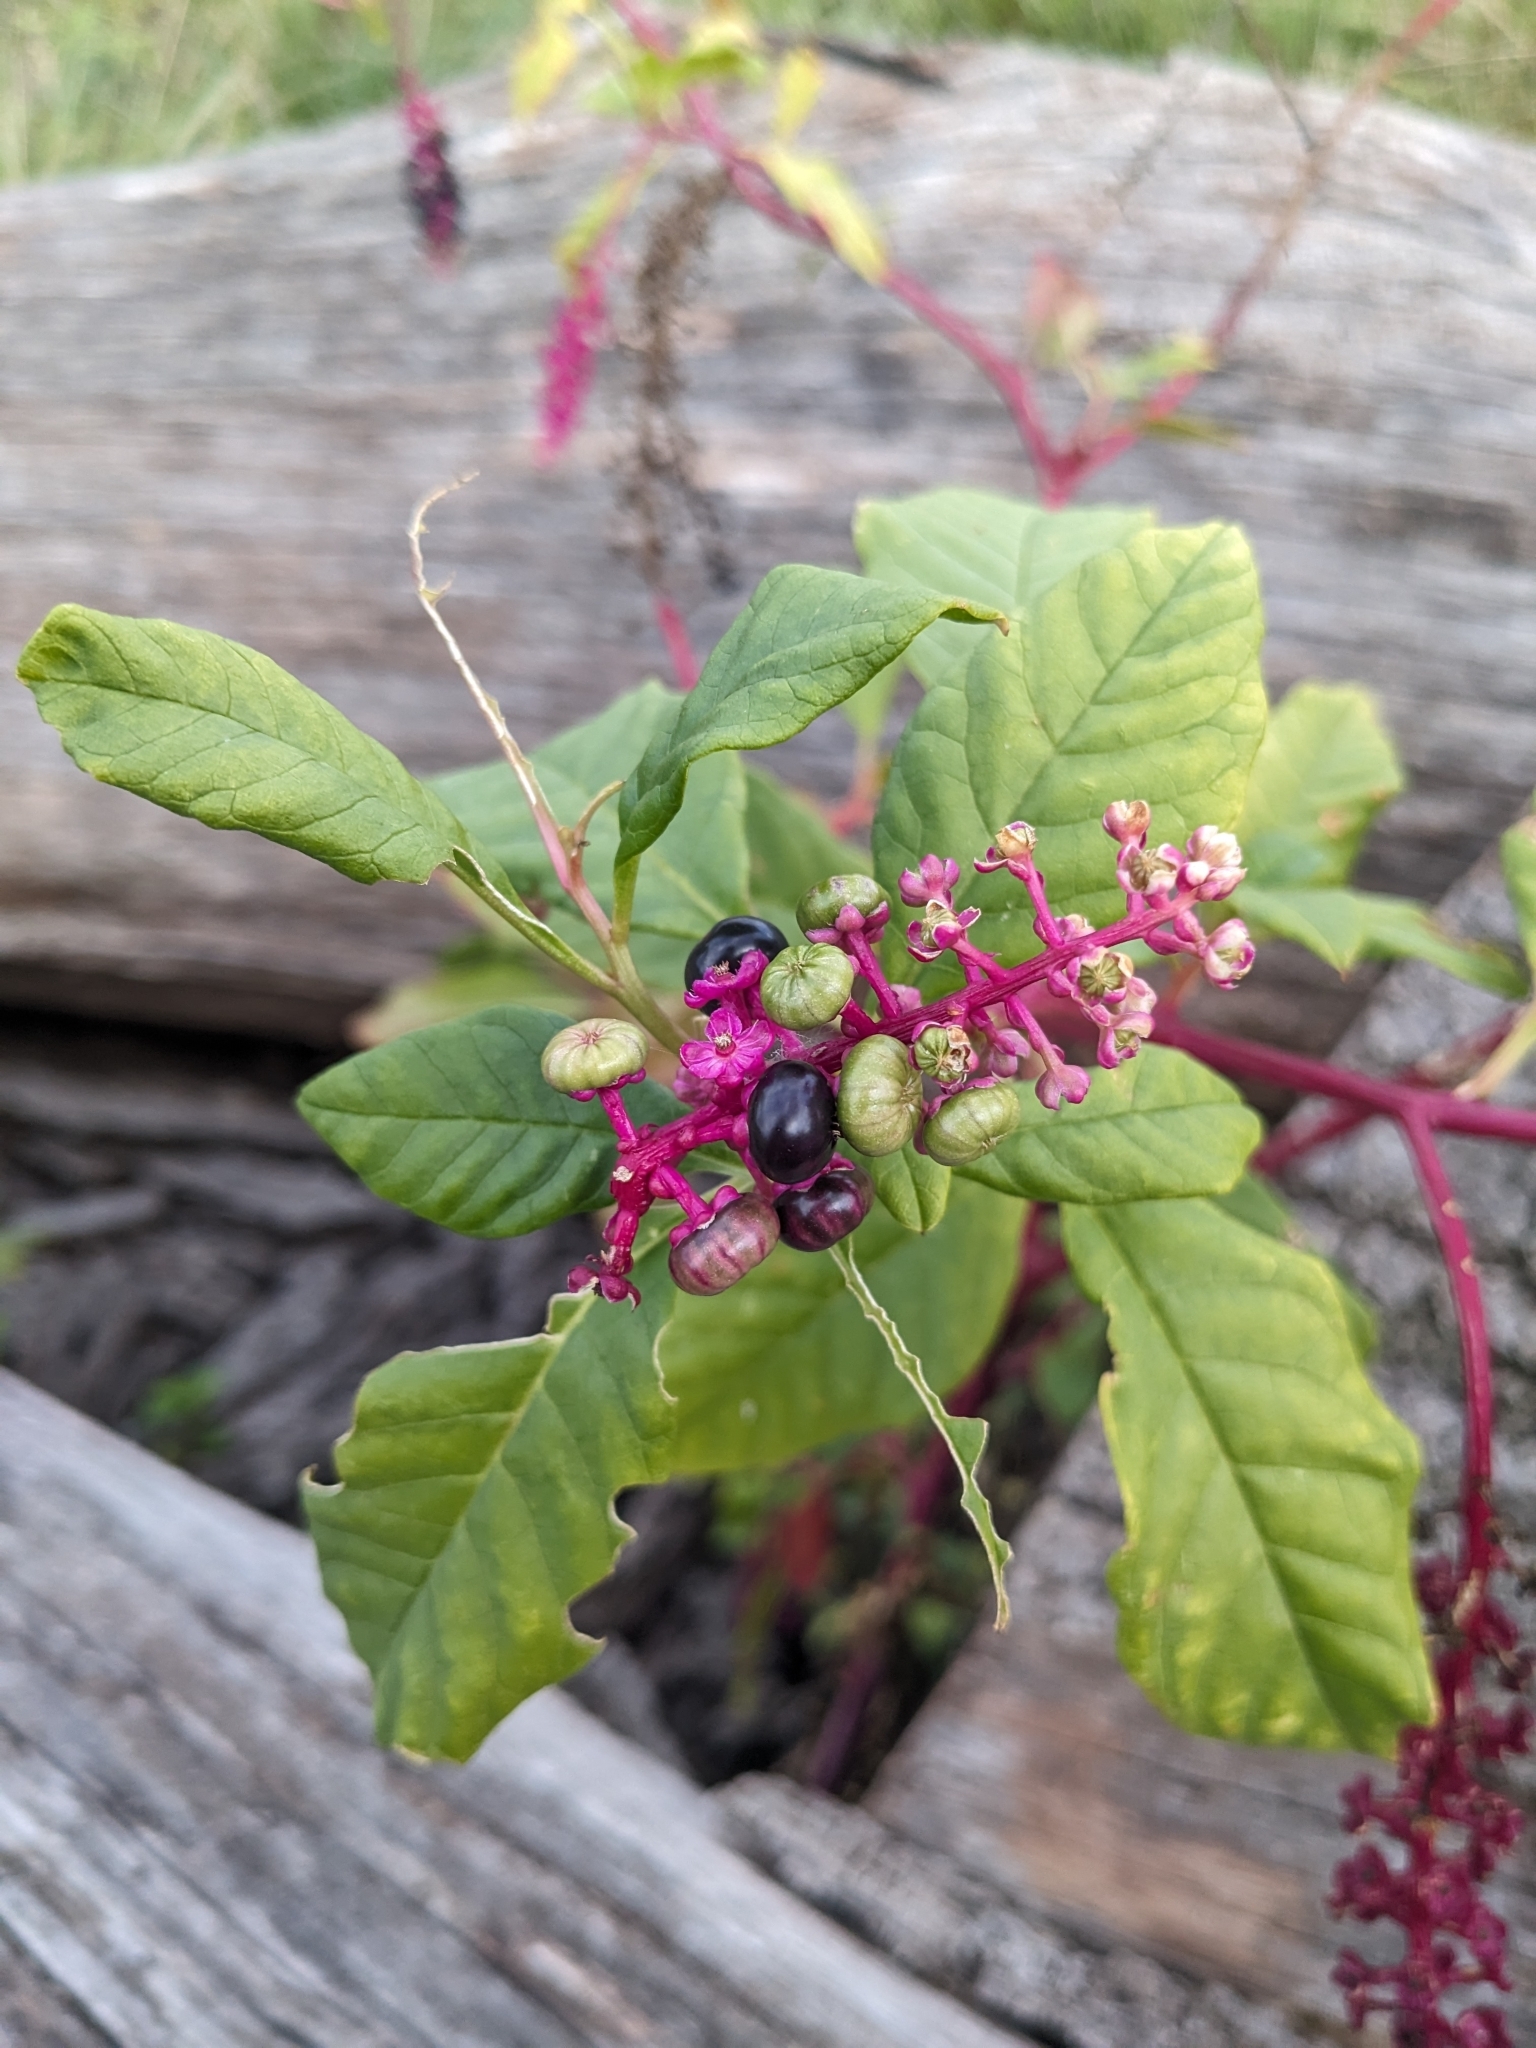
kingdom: Plantae
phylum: Tracheophyta
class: Magnoliopsida
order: Caryophyllales
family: Phytolaccaceae
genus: Phytolacca
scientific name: Phytolacca americana
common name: American pokeweed
